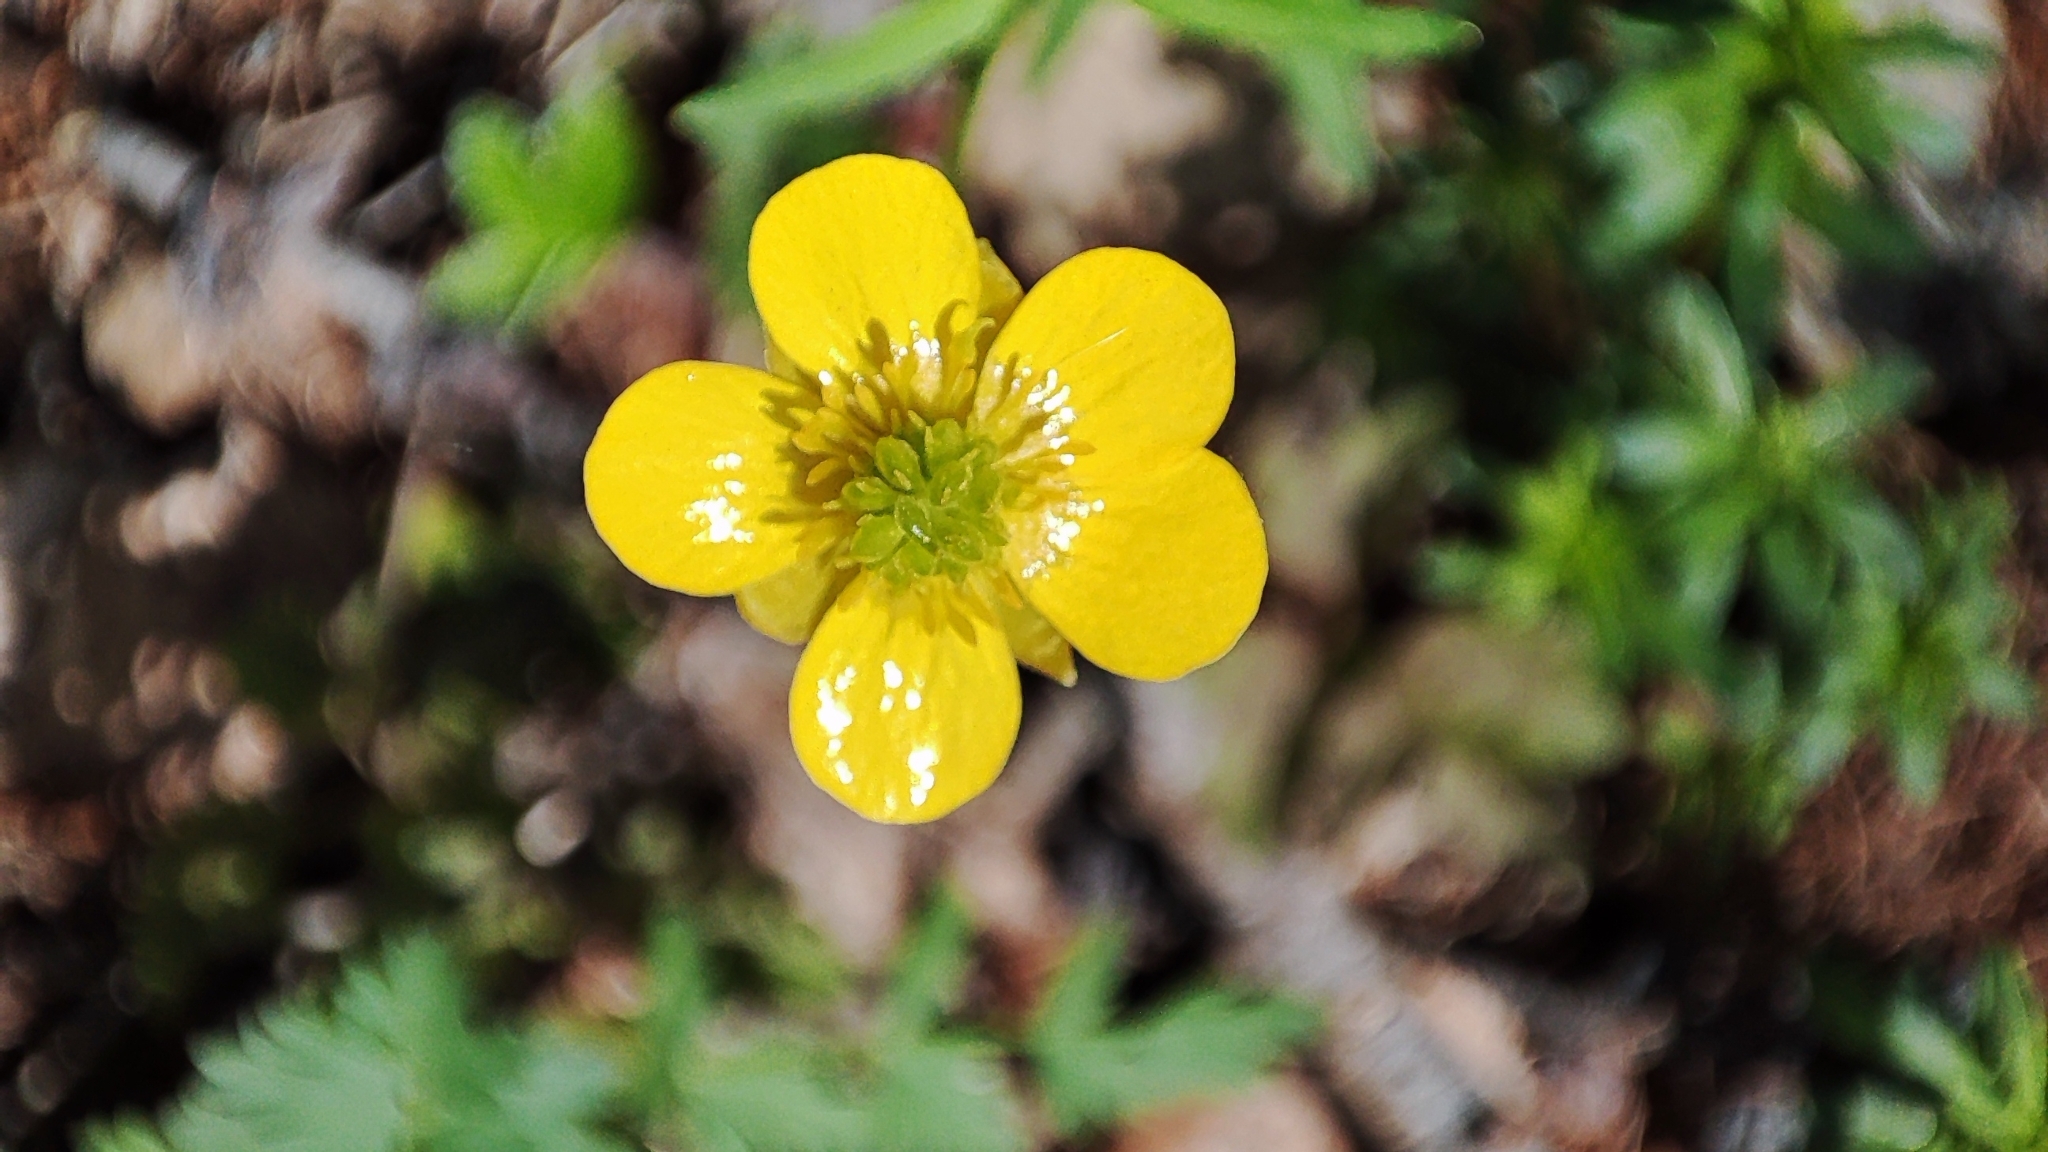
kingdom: Plantae
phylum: Tracheophyta
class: Magnoliopsida
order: Ranunculales
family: Ranunculaceae
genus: Ranunculus
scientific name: Ranunculus monophyllus
